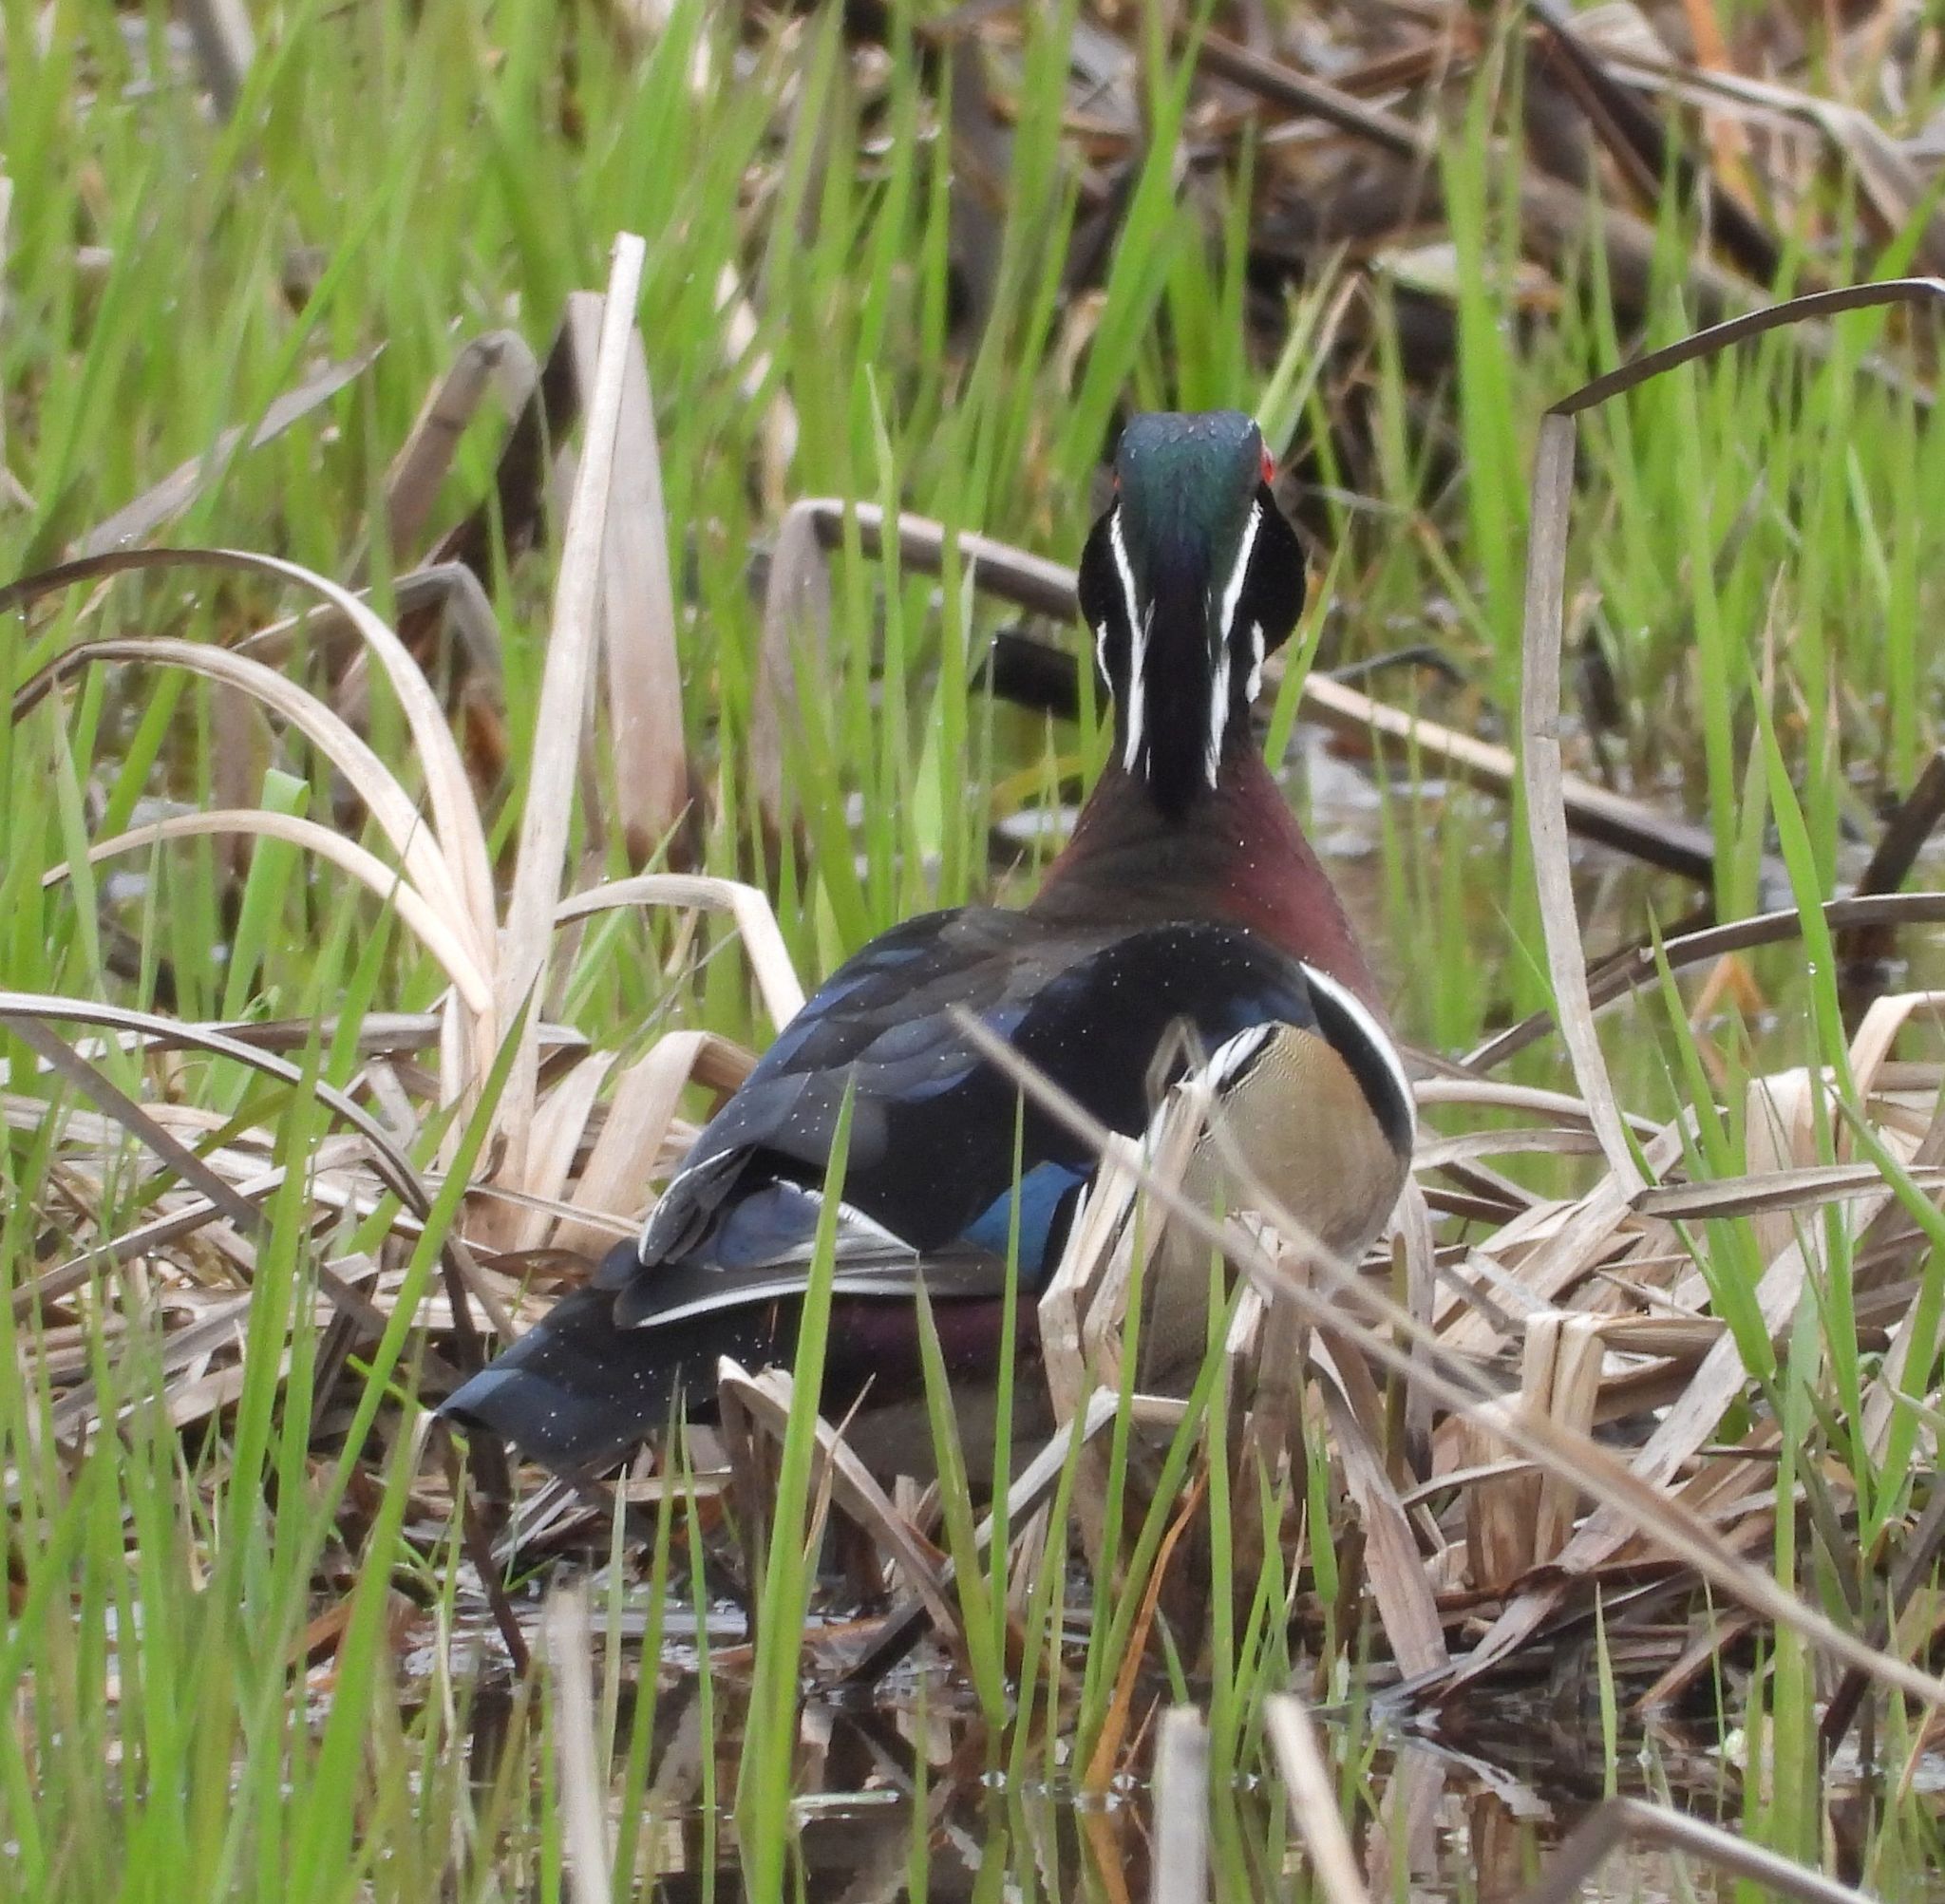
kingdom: Animalia
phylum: Chordata
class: Aves
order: Anseriformes
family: Anatidae
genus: Aix
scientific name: Aix sponsa
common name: Wood duck
